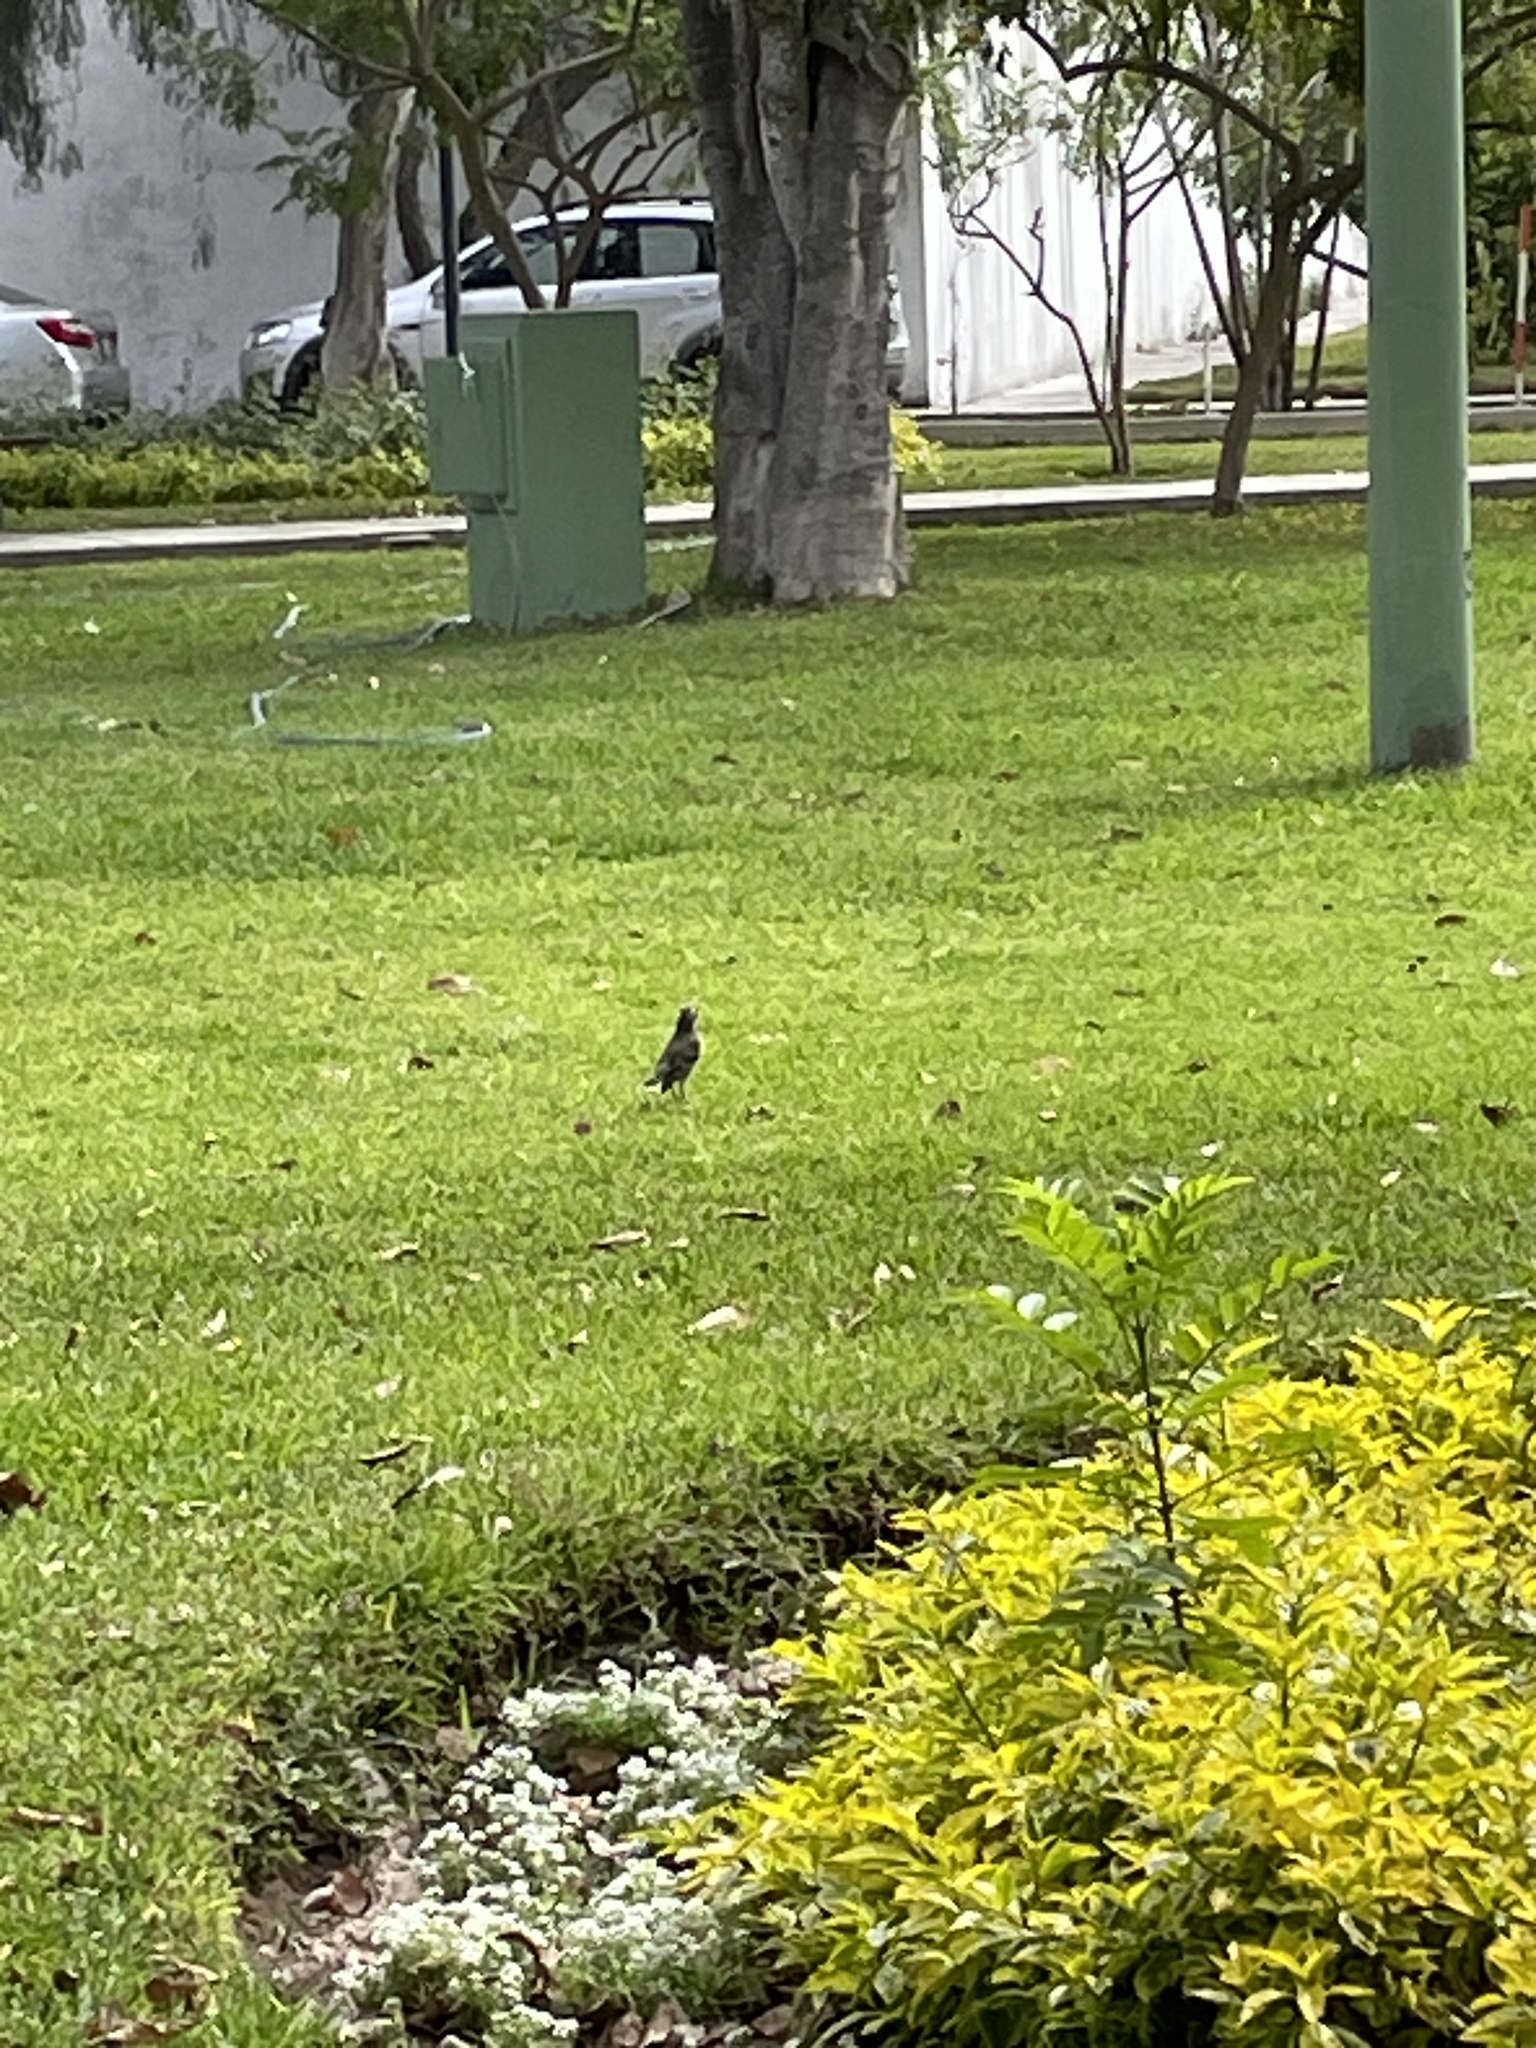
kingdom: Animalia
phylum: Chordata
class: Aves
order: Passeriformes
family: Mimidae
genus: Mimus
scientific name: Mimus longicaudatus
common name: Long-tailed mockingbird
